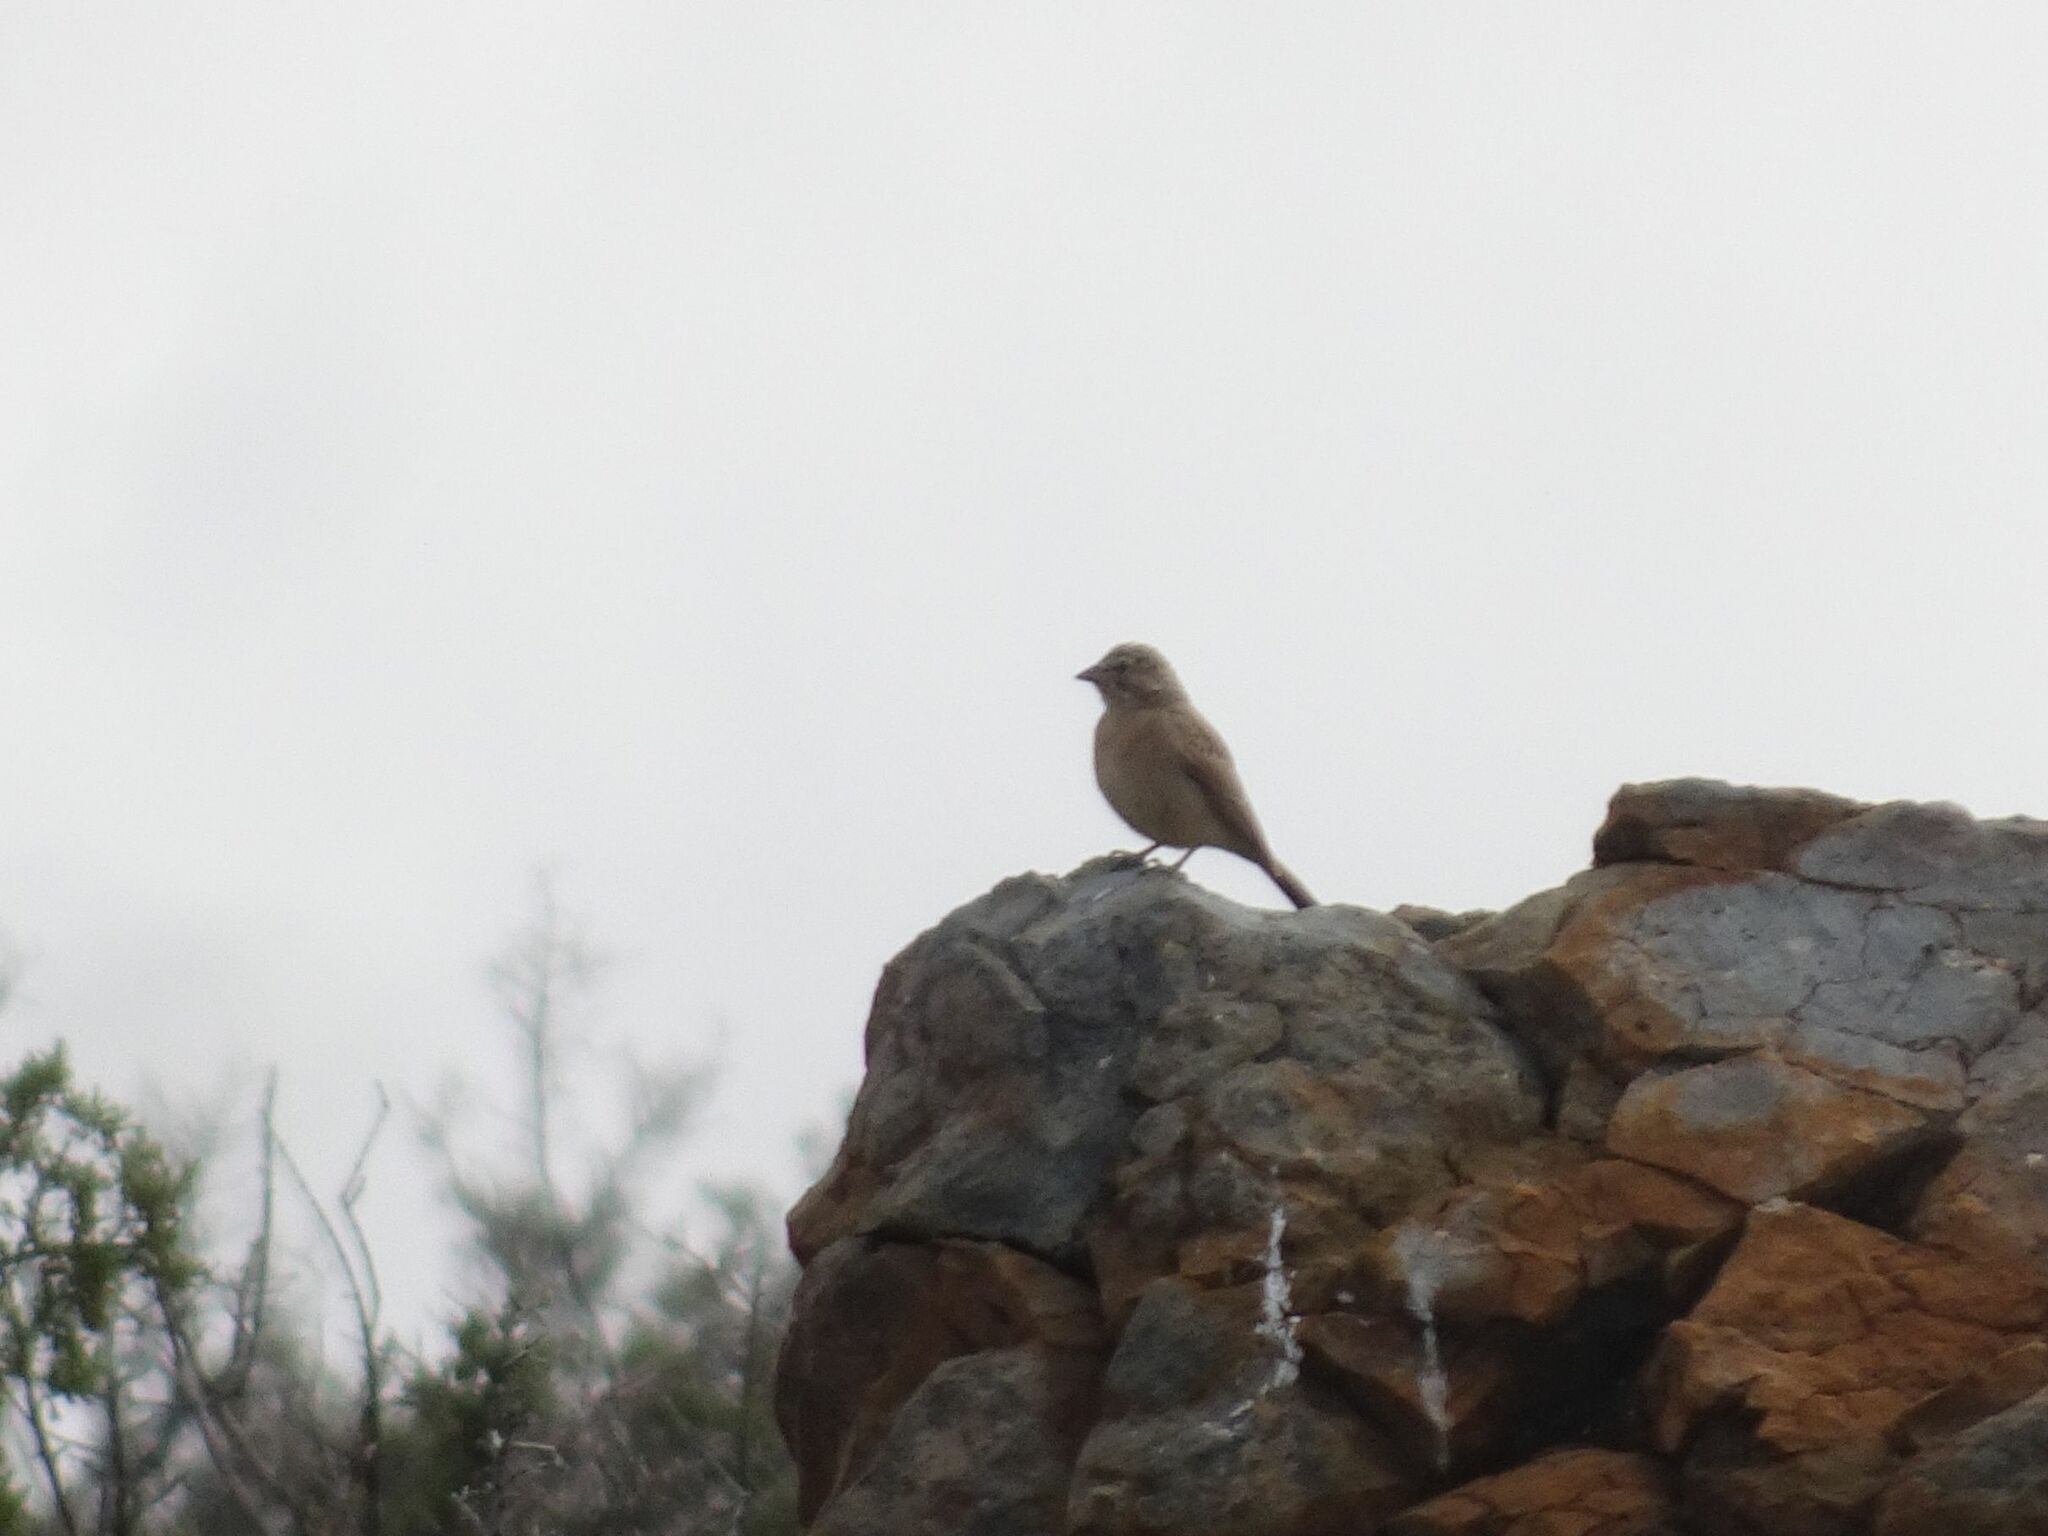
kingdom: Animalia
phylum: Chordata
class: Aves
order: Passeriformes
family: Emberizidae
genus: Emberiza
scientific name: Emberiza impetuani
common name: Lark-like bunting
